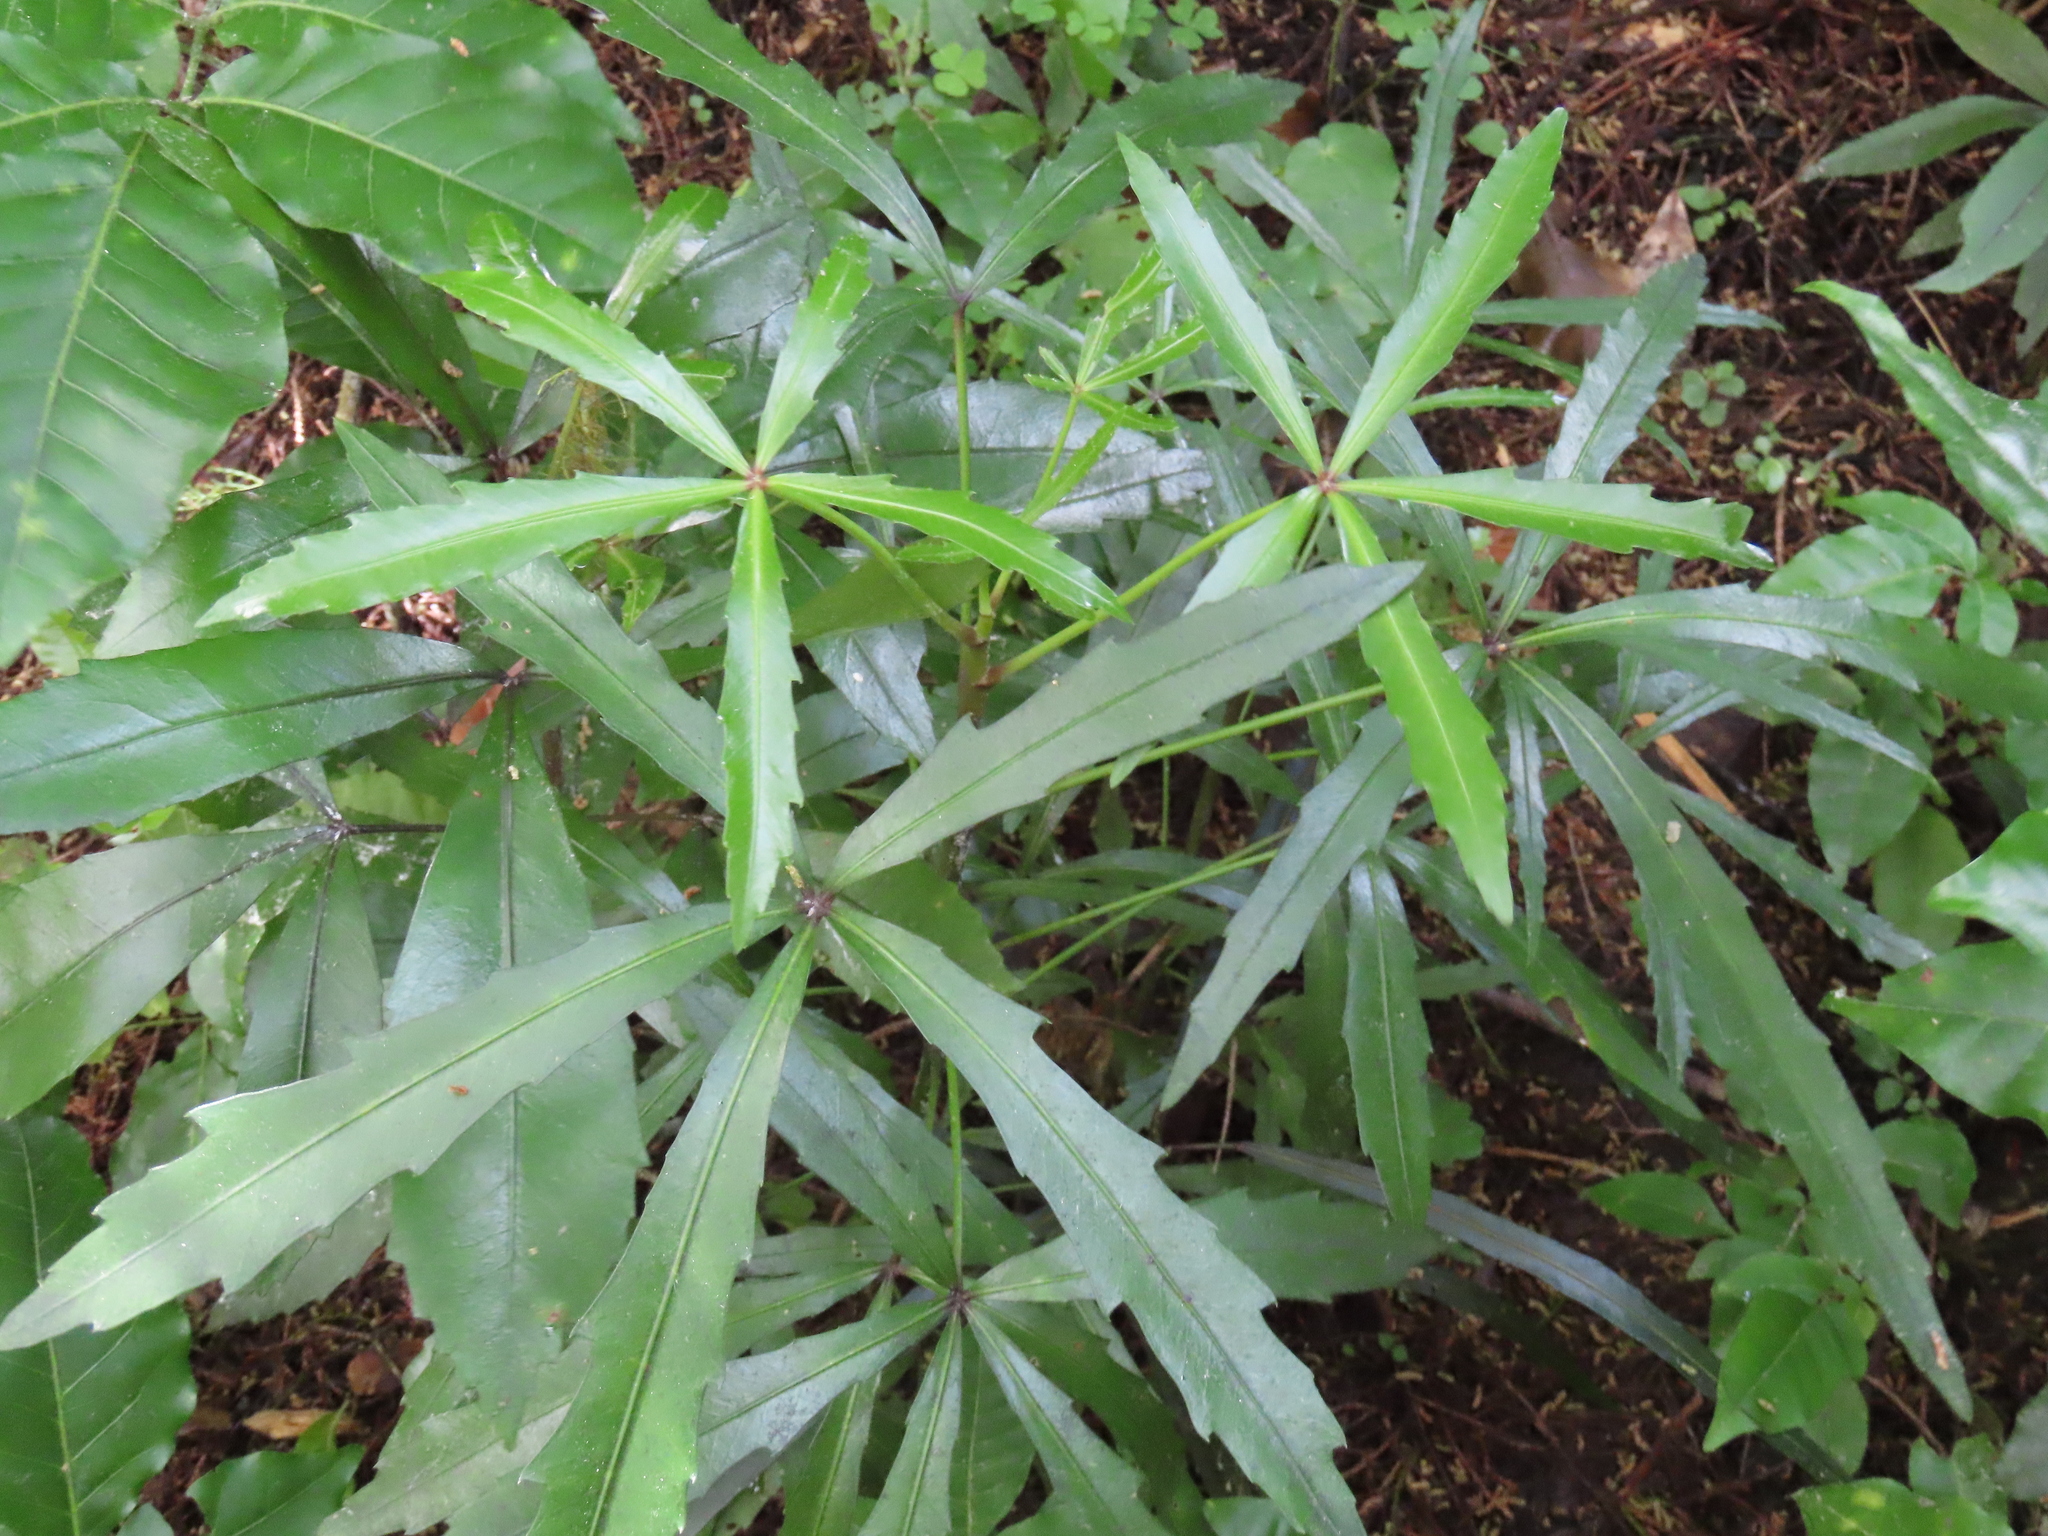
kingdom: Plantae
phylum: Tracheophyta
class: Magnoliopsida
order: Apiales
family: Araliaceae
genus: Pseudopanax
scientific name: Pseudopanax
